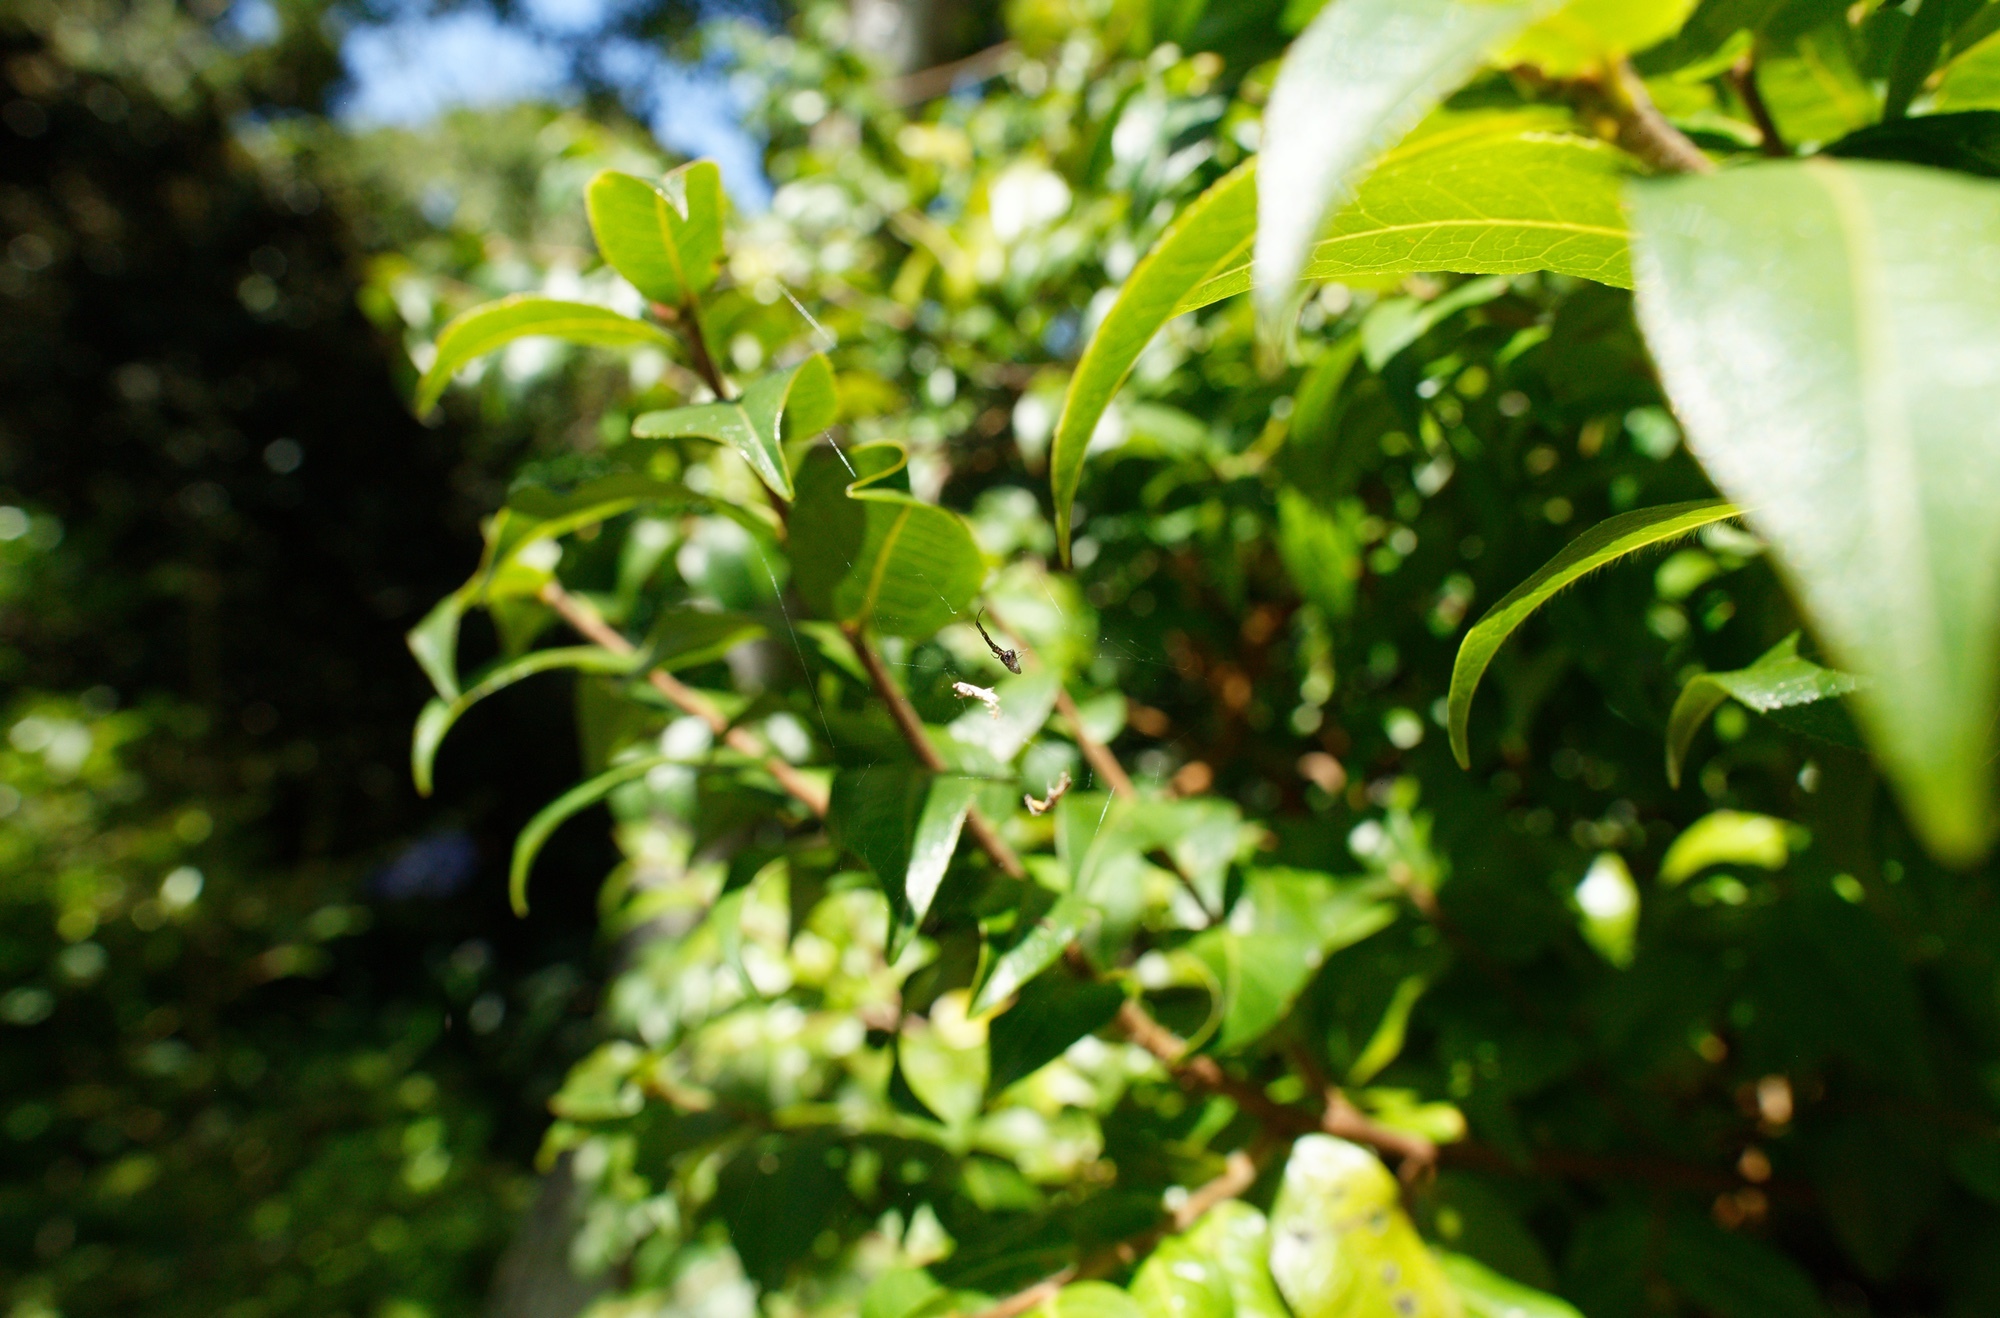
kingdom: Animalia
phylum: Arthropoda
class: Arachnida
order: Araneae
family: Theridiidae
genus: Argyrodes
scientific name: Argyrodes antipodianus
